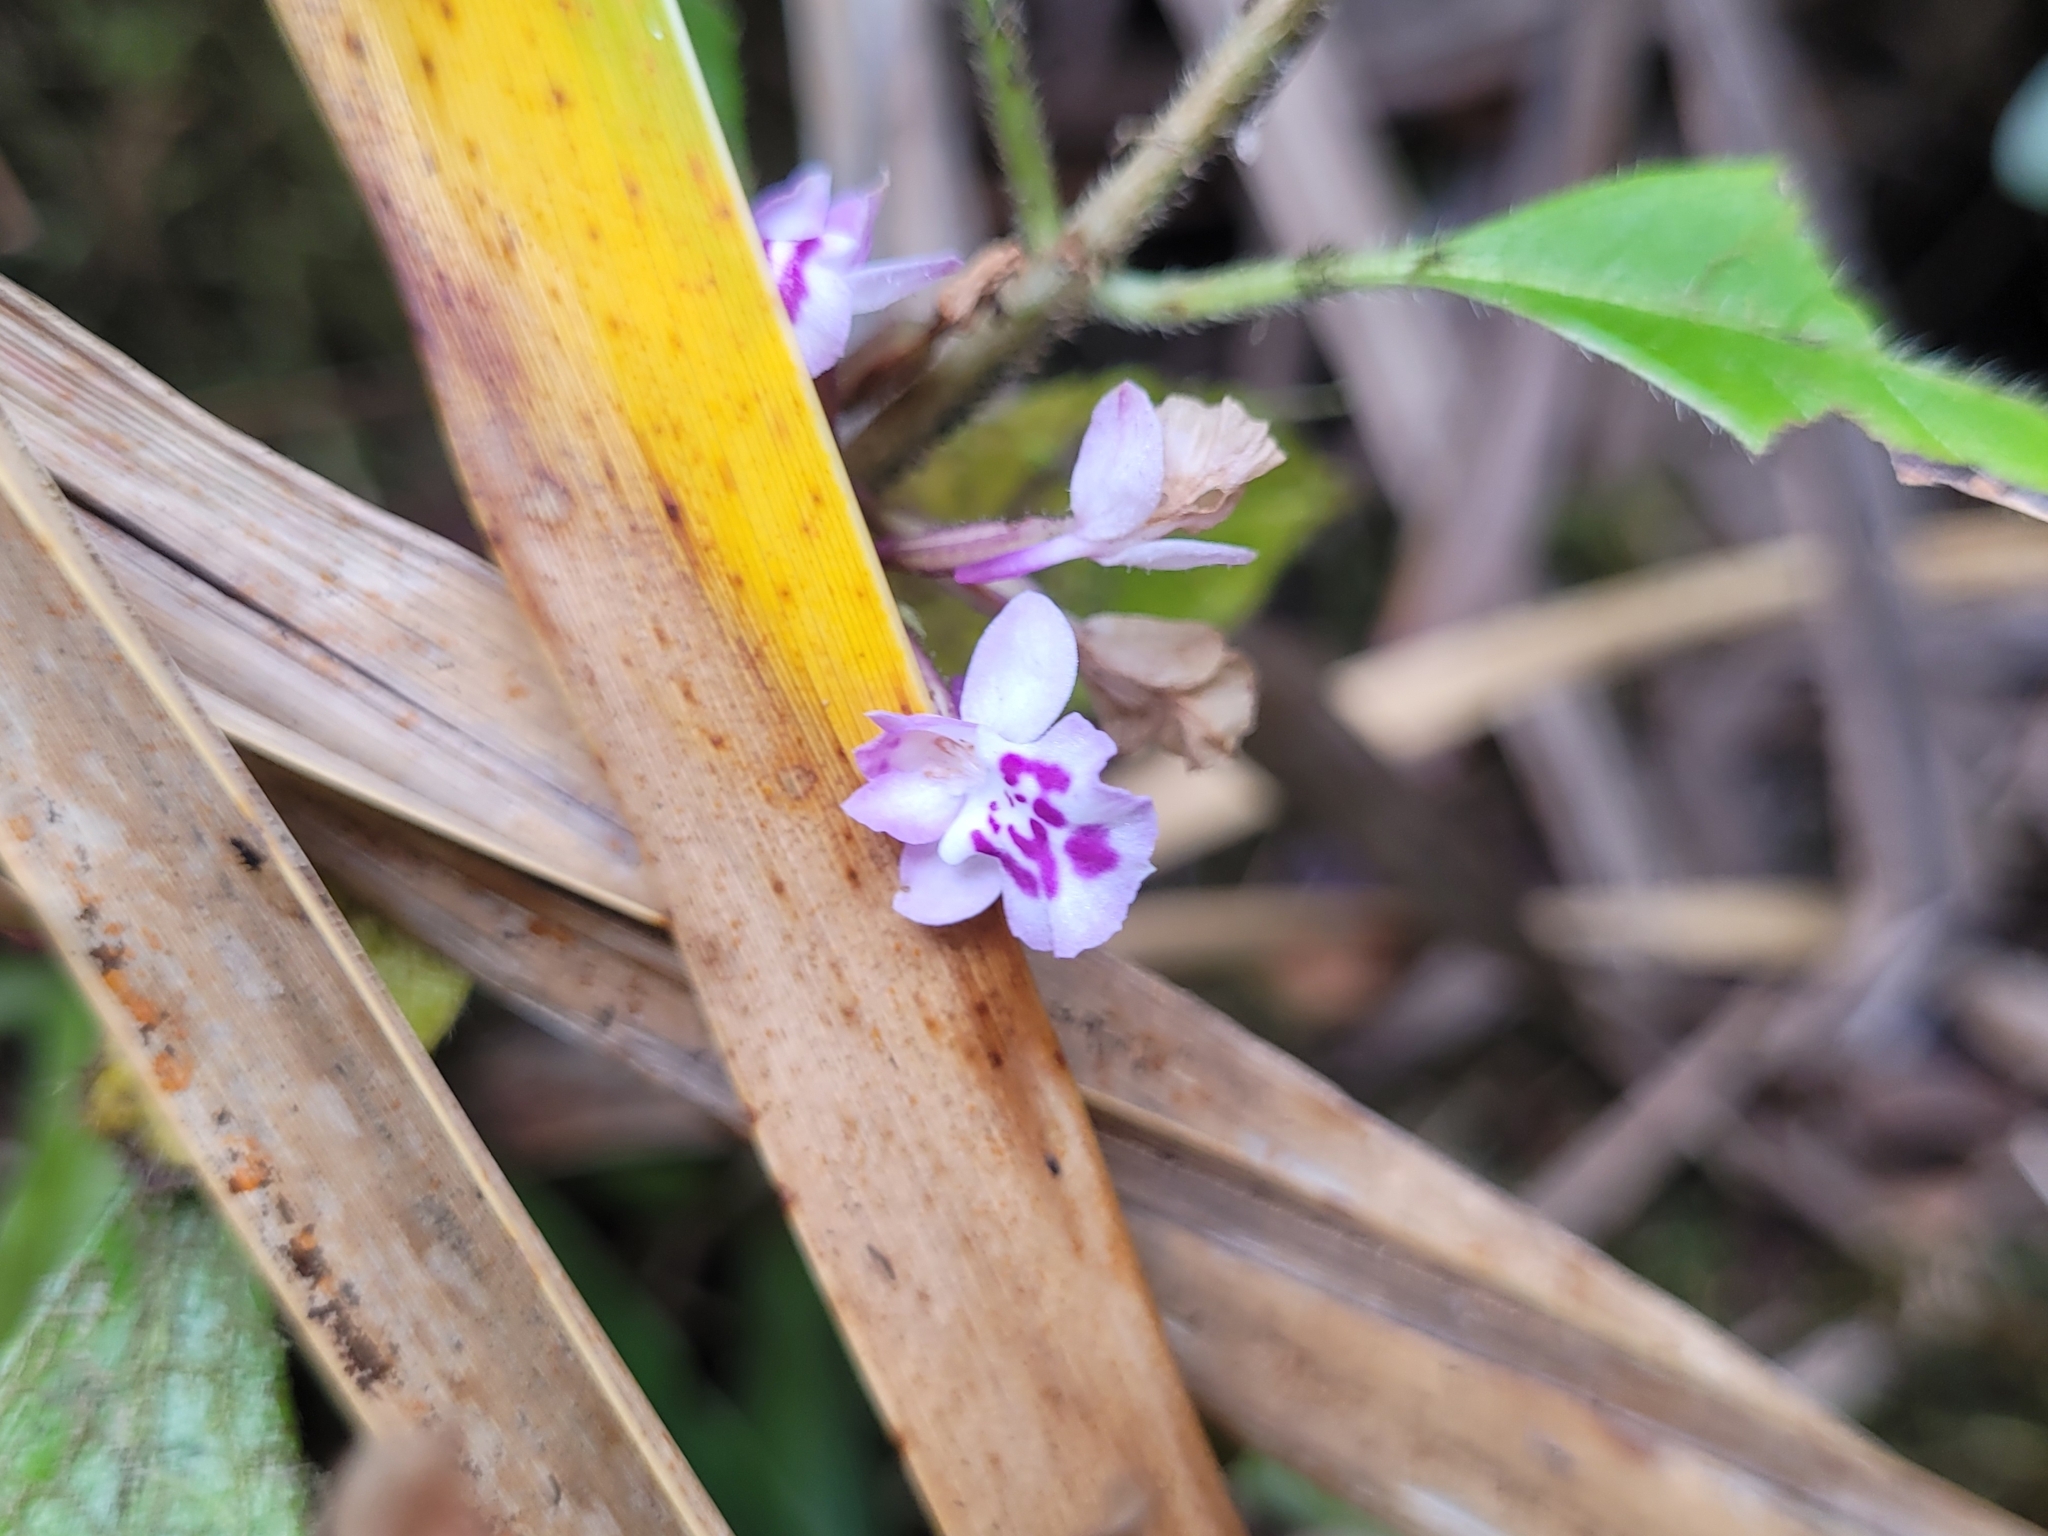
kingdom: Plantae
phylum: Tracheophyta
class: Liliopsida
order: Asparagales
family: Orchidaceae
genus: Cynorkis
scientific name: Cynorkis squamosa
